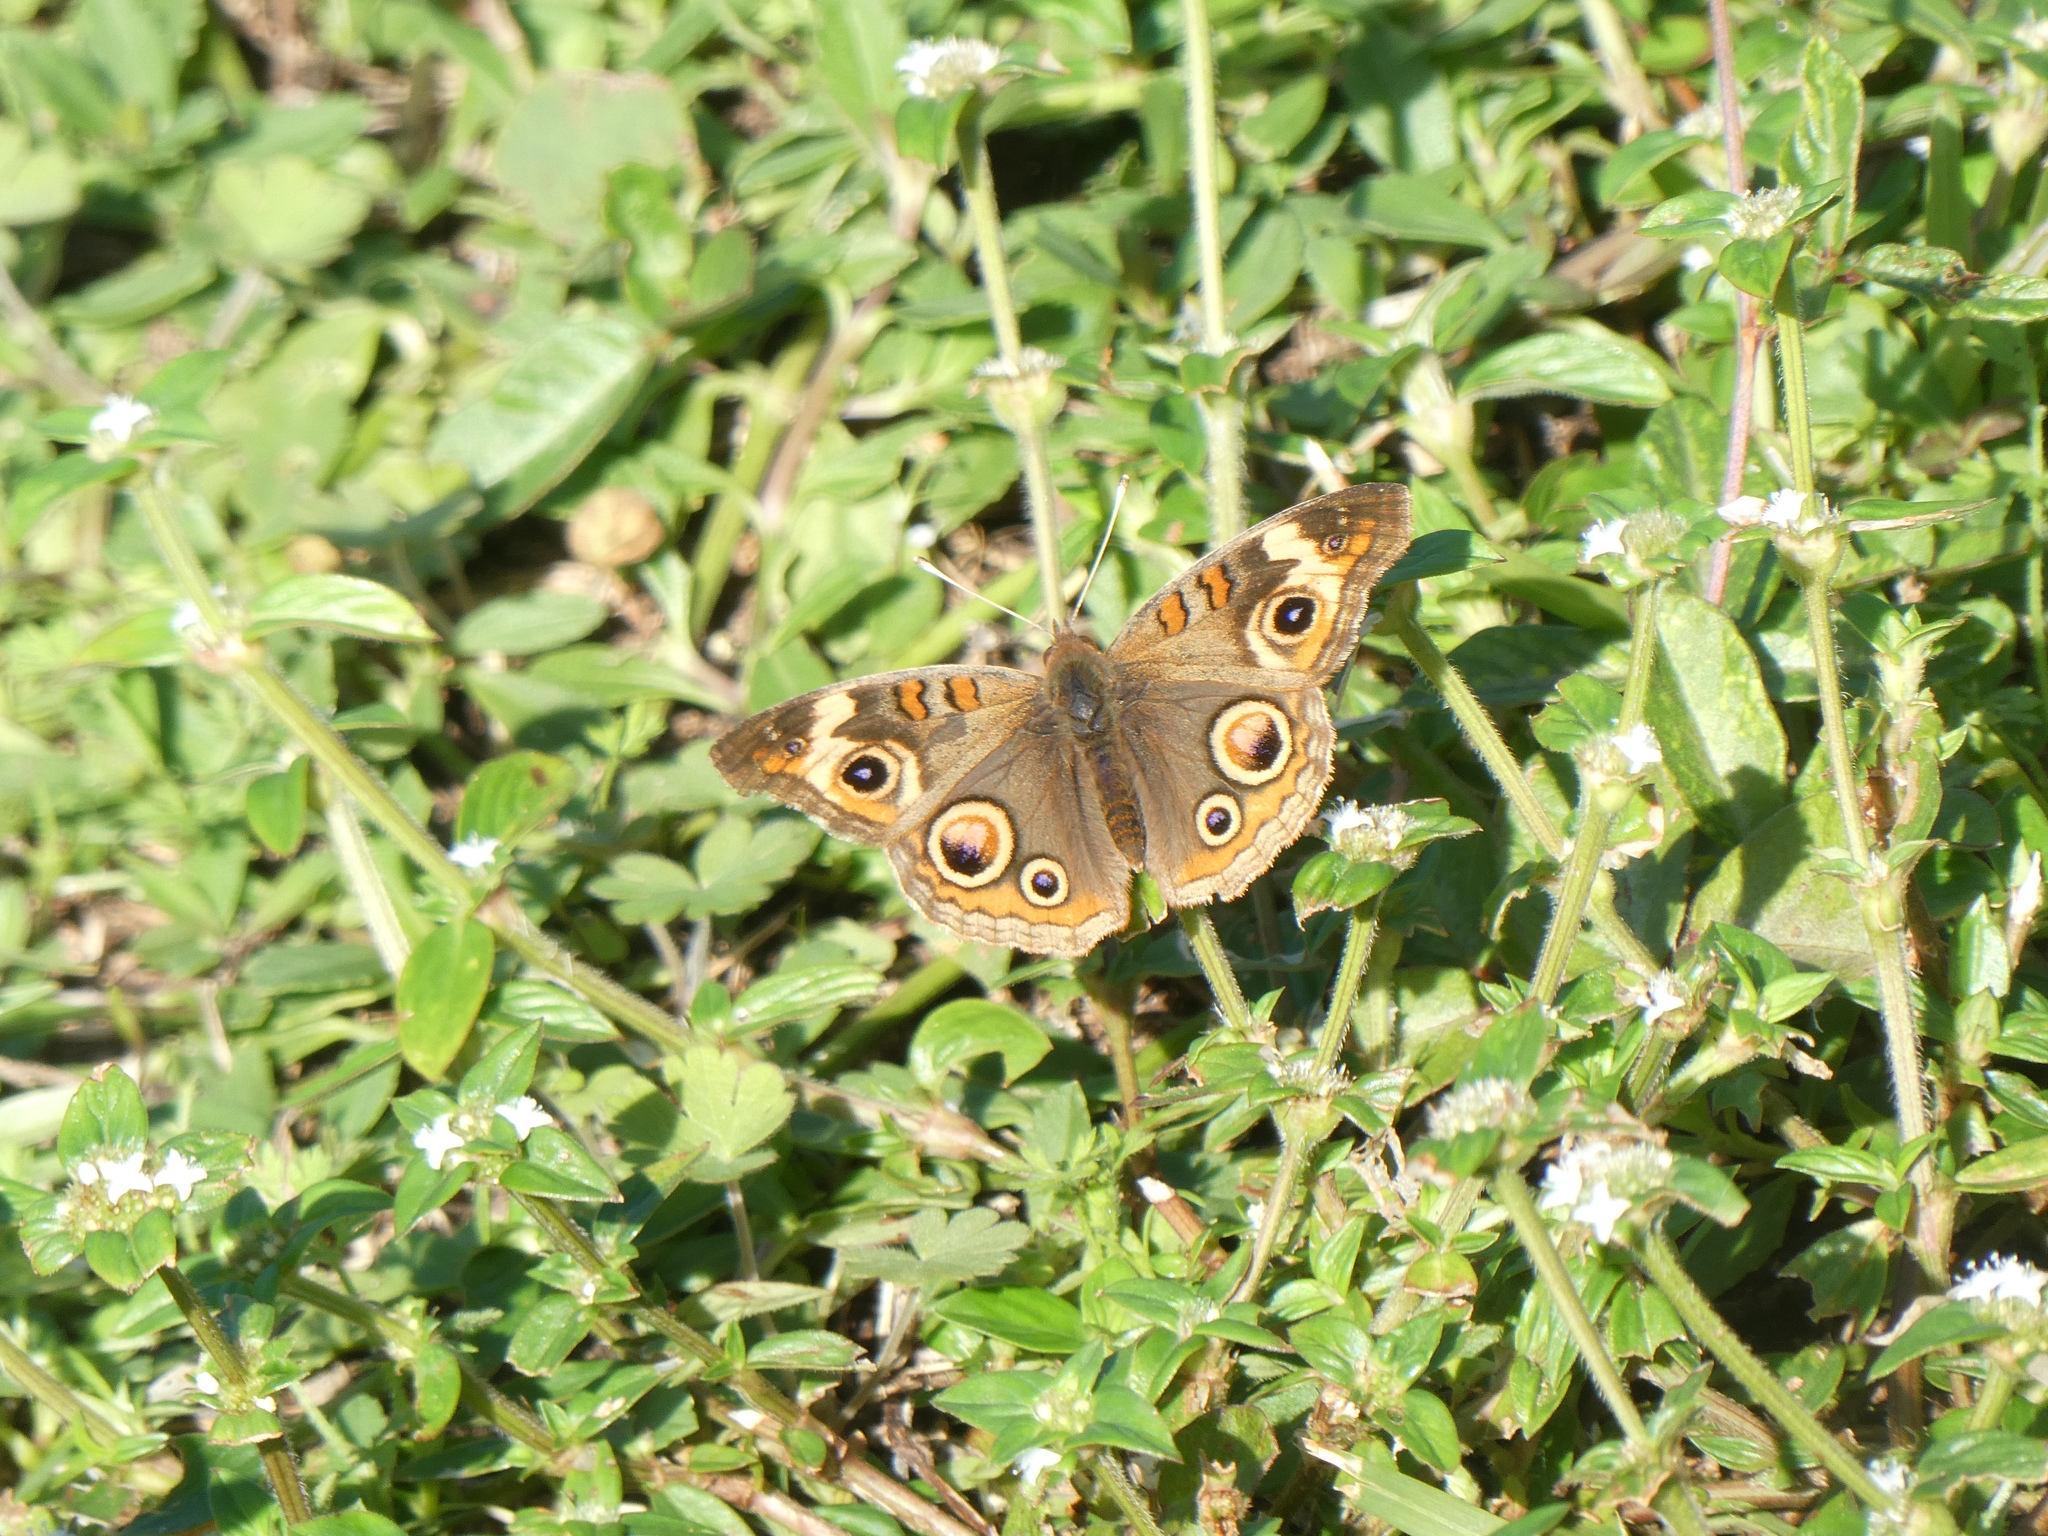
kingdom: Animalia
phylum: Arthropoda
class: Insecta
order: Lepidoptera
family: Nymphalidae
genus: Junonia
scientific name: Junonia coenia
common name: Common buckeye
